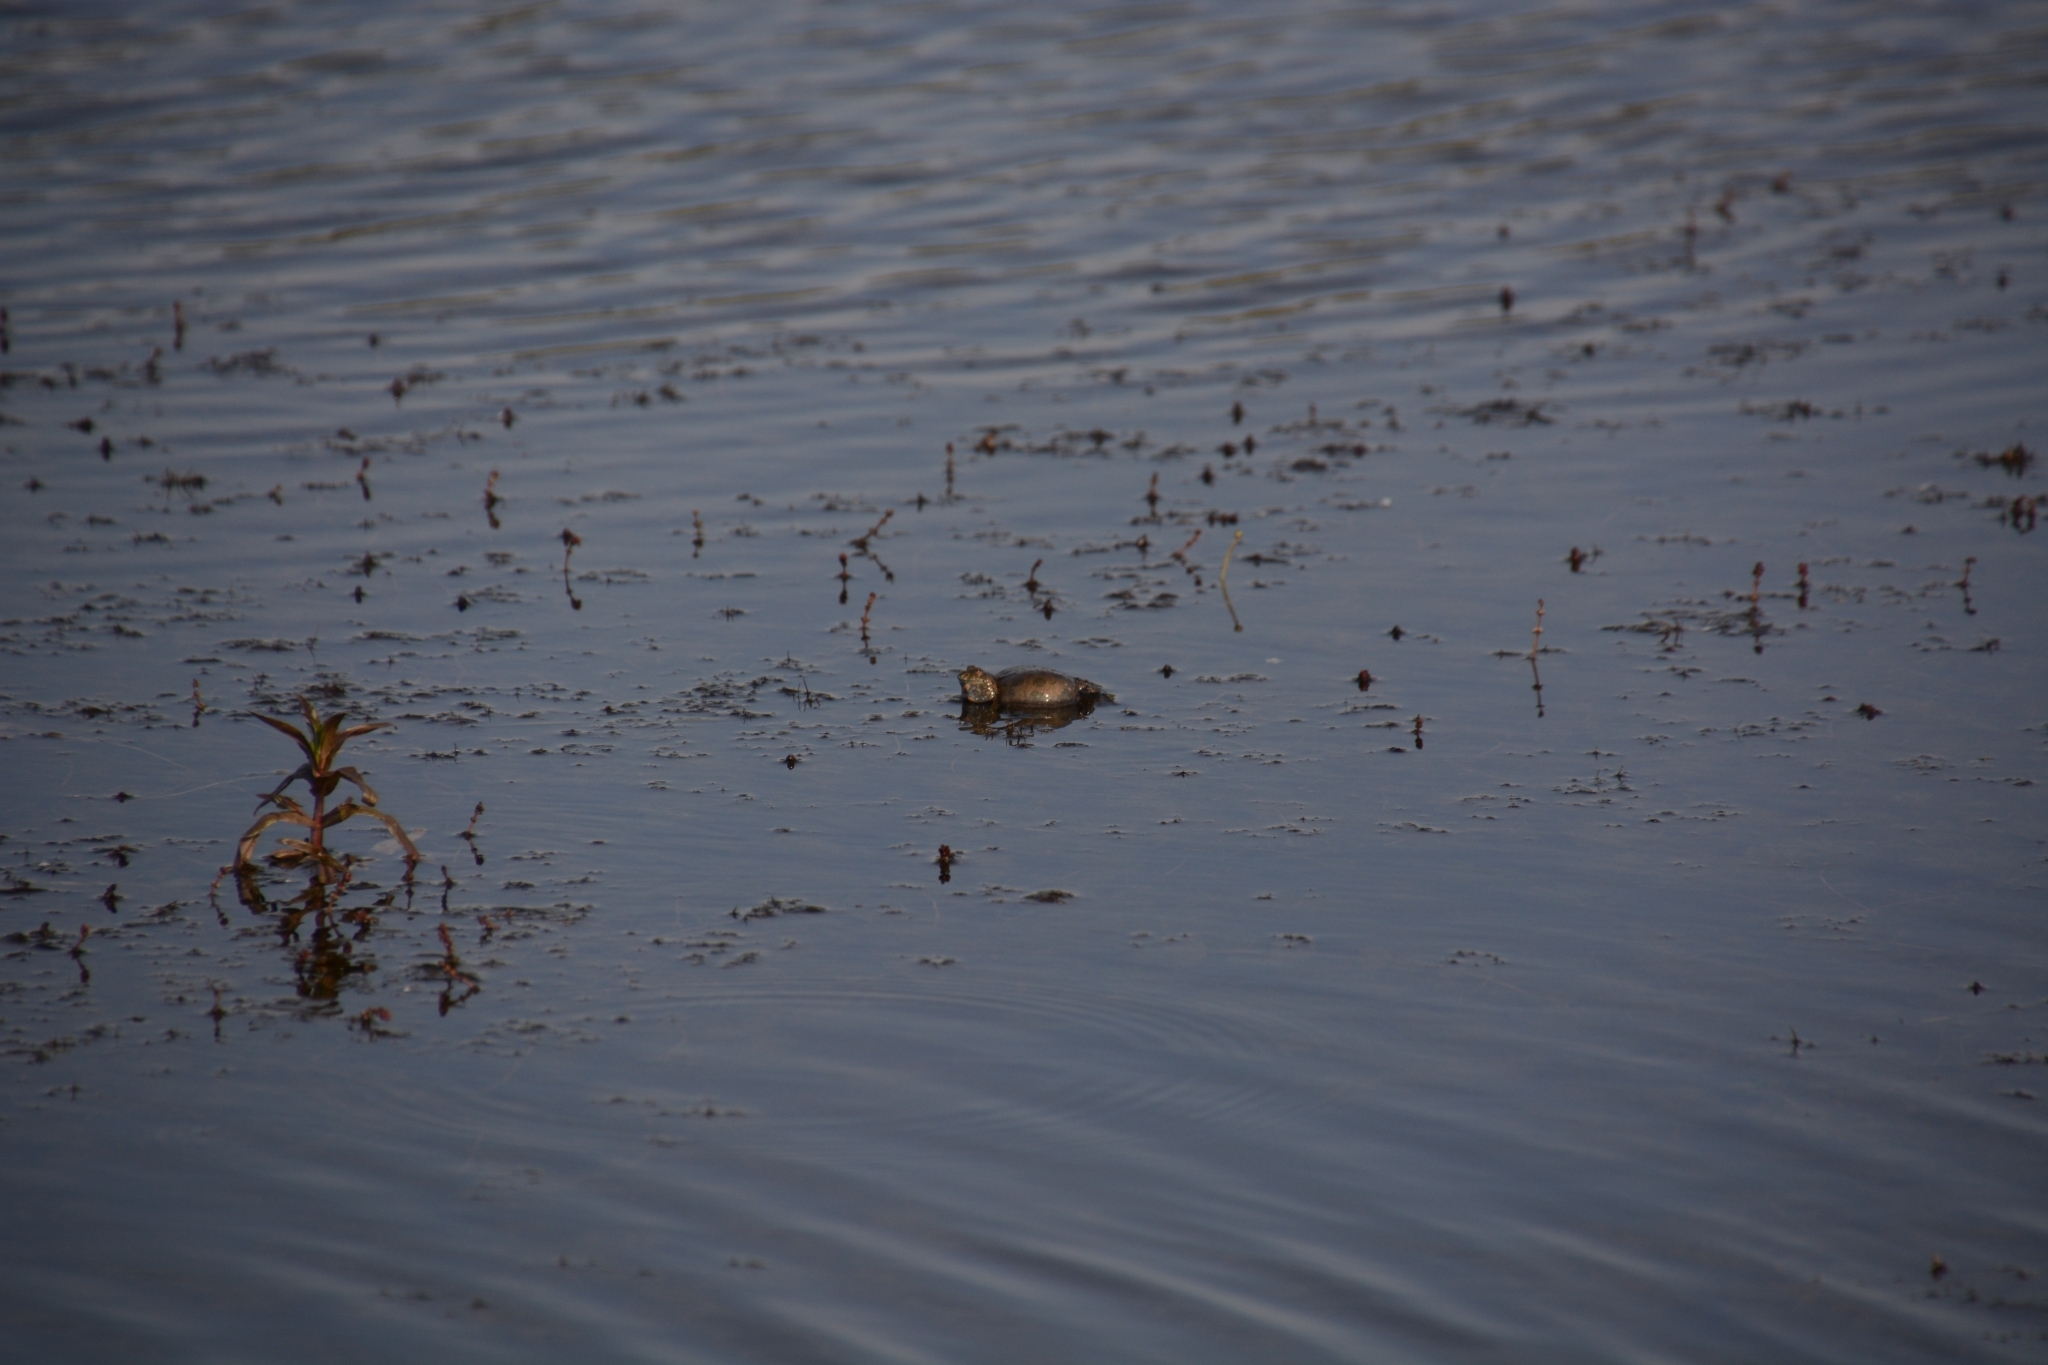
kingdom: Animalia
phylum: Chordata
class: Amphibia
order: Anura
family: Bombinatoridae
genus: Bombina
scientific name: Bombina bombina
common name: Fire-bellied toad
